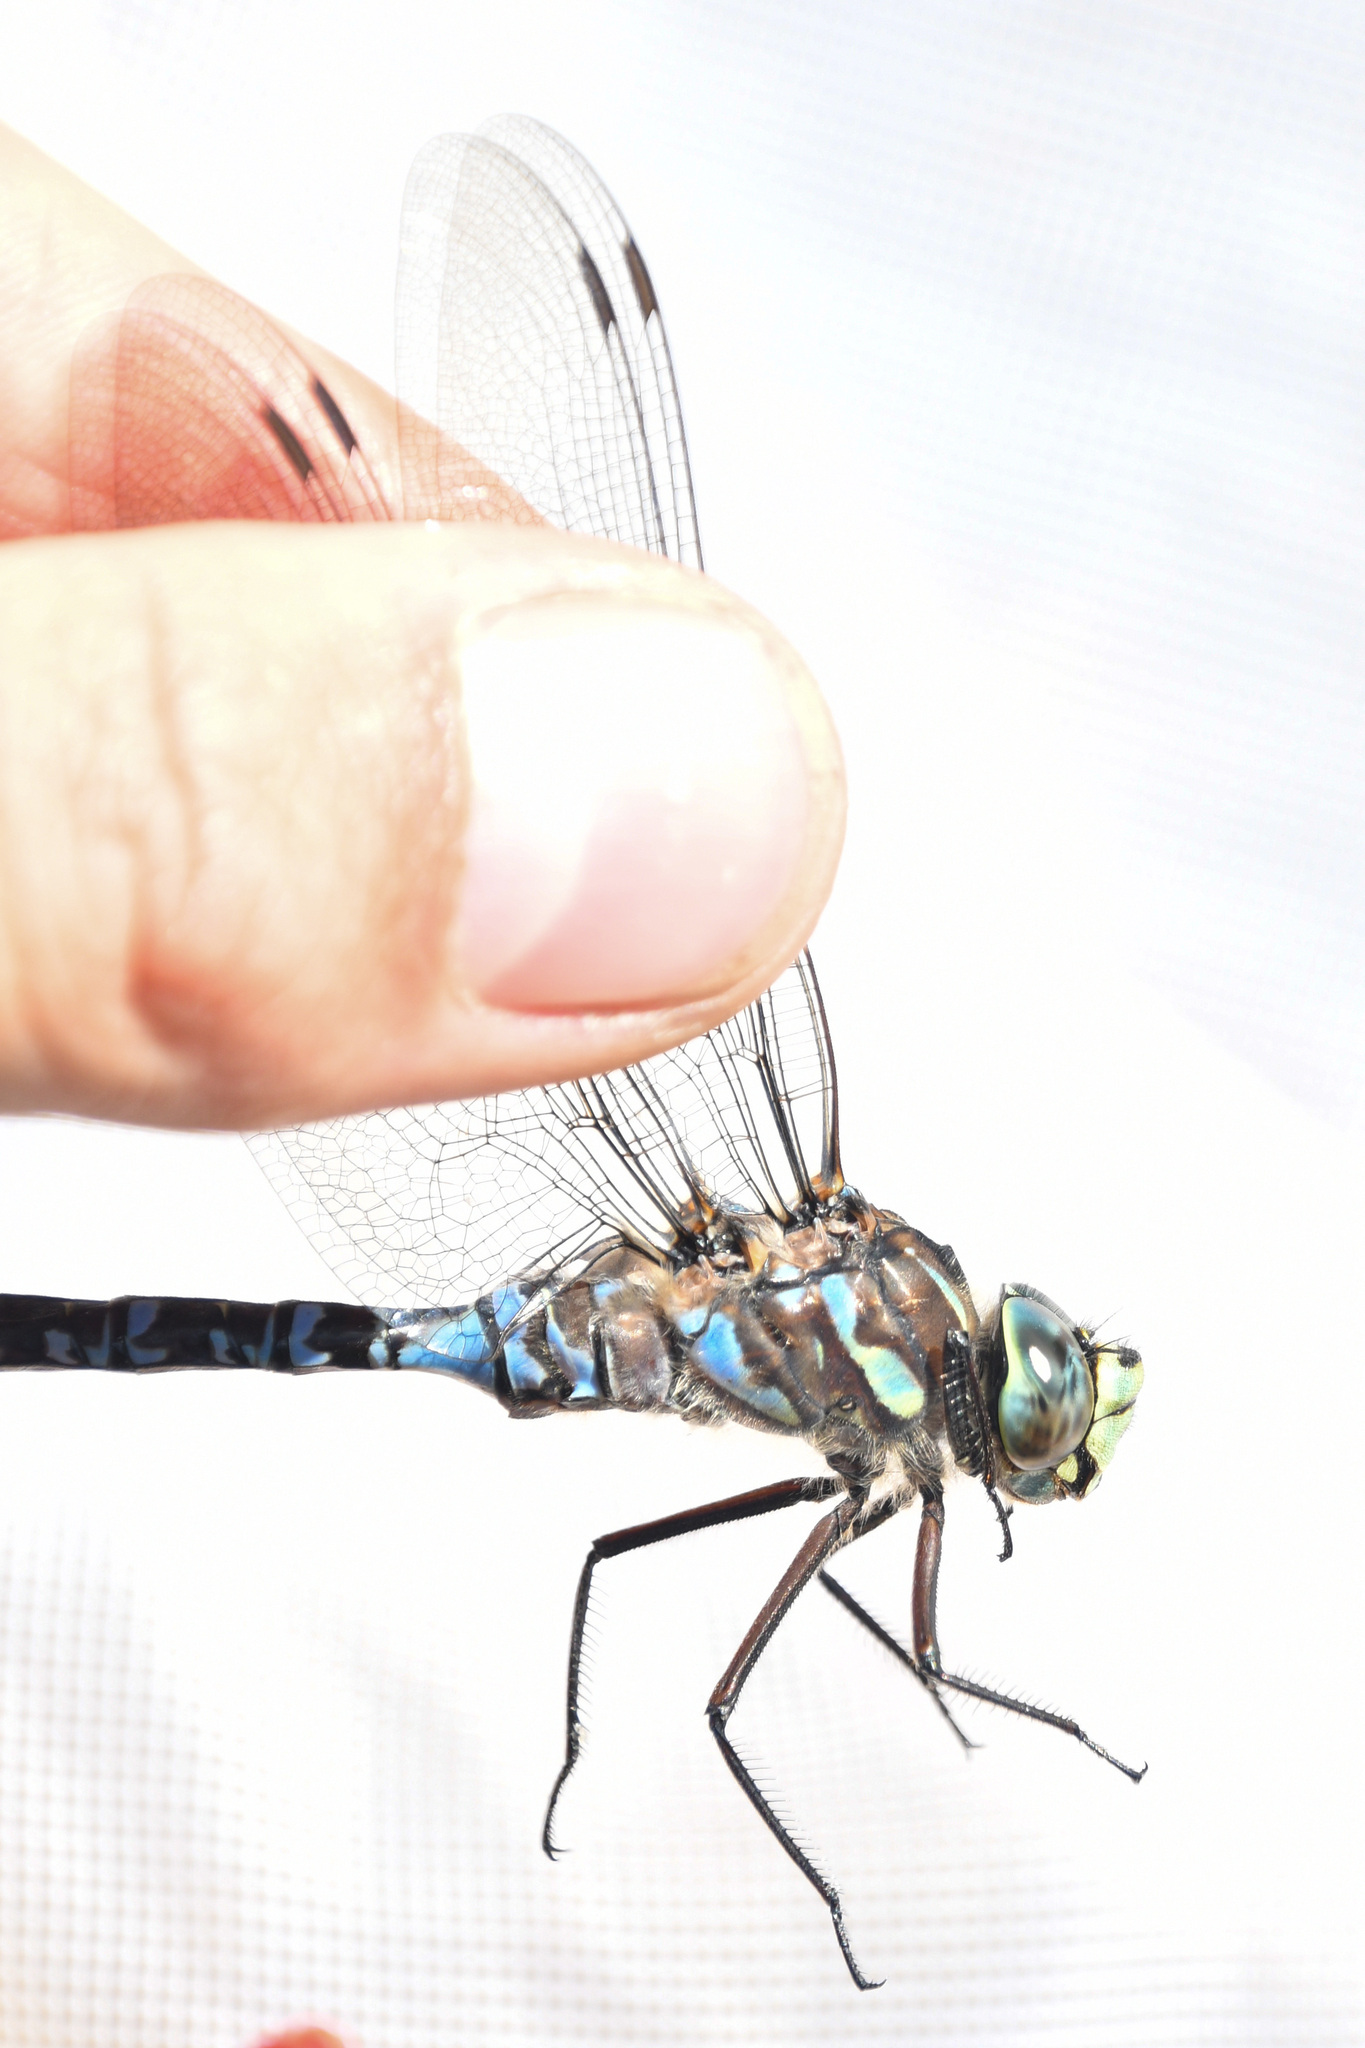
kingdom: Animalia
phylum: Arthropoda
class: Insecta
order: Odonata
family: Aeshnidae
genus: Aeshna
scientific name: Aeshna eremita
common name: Lake darner
